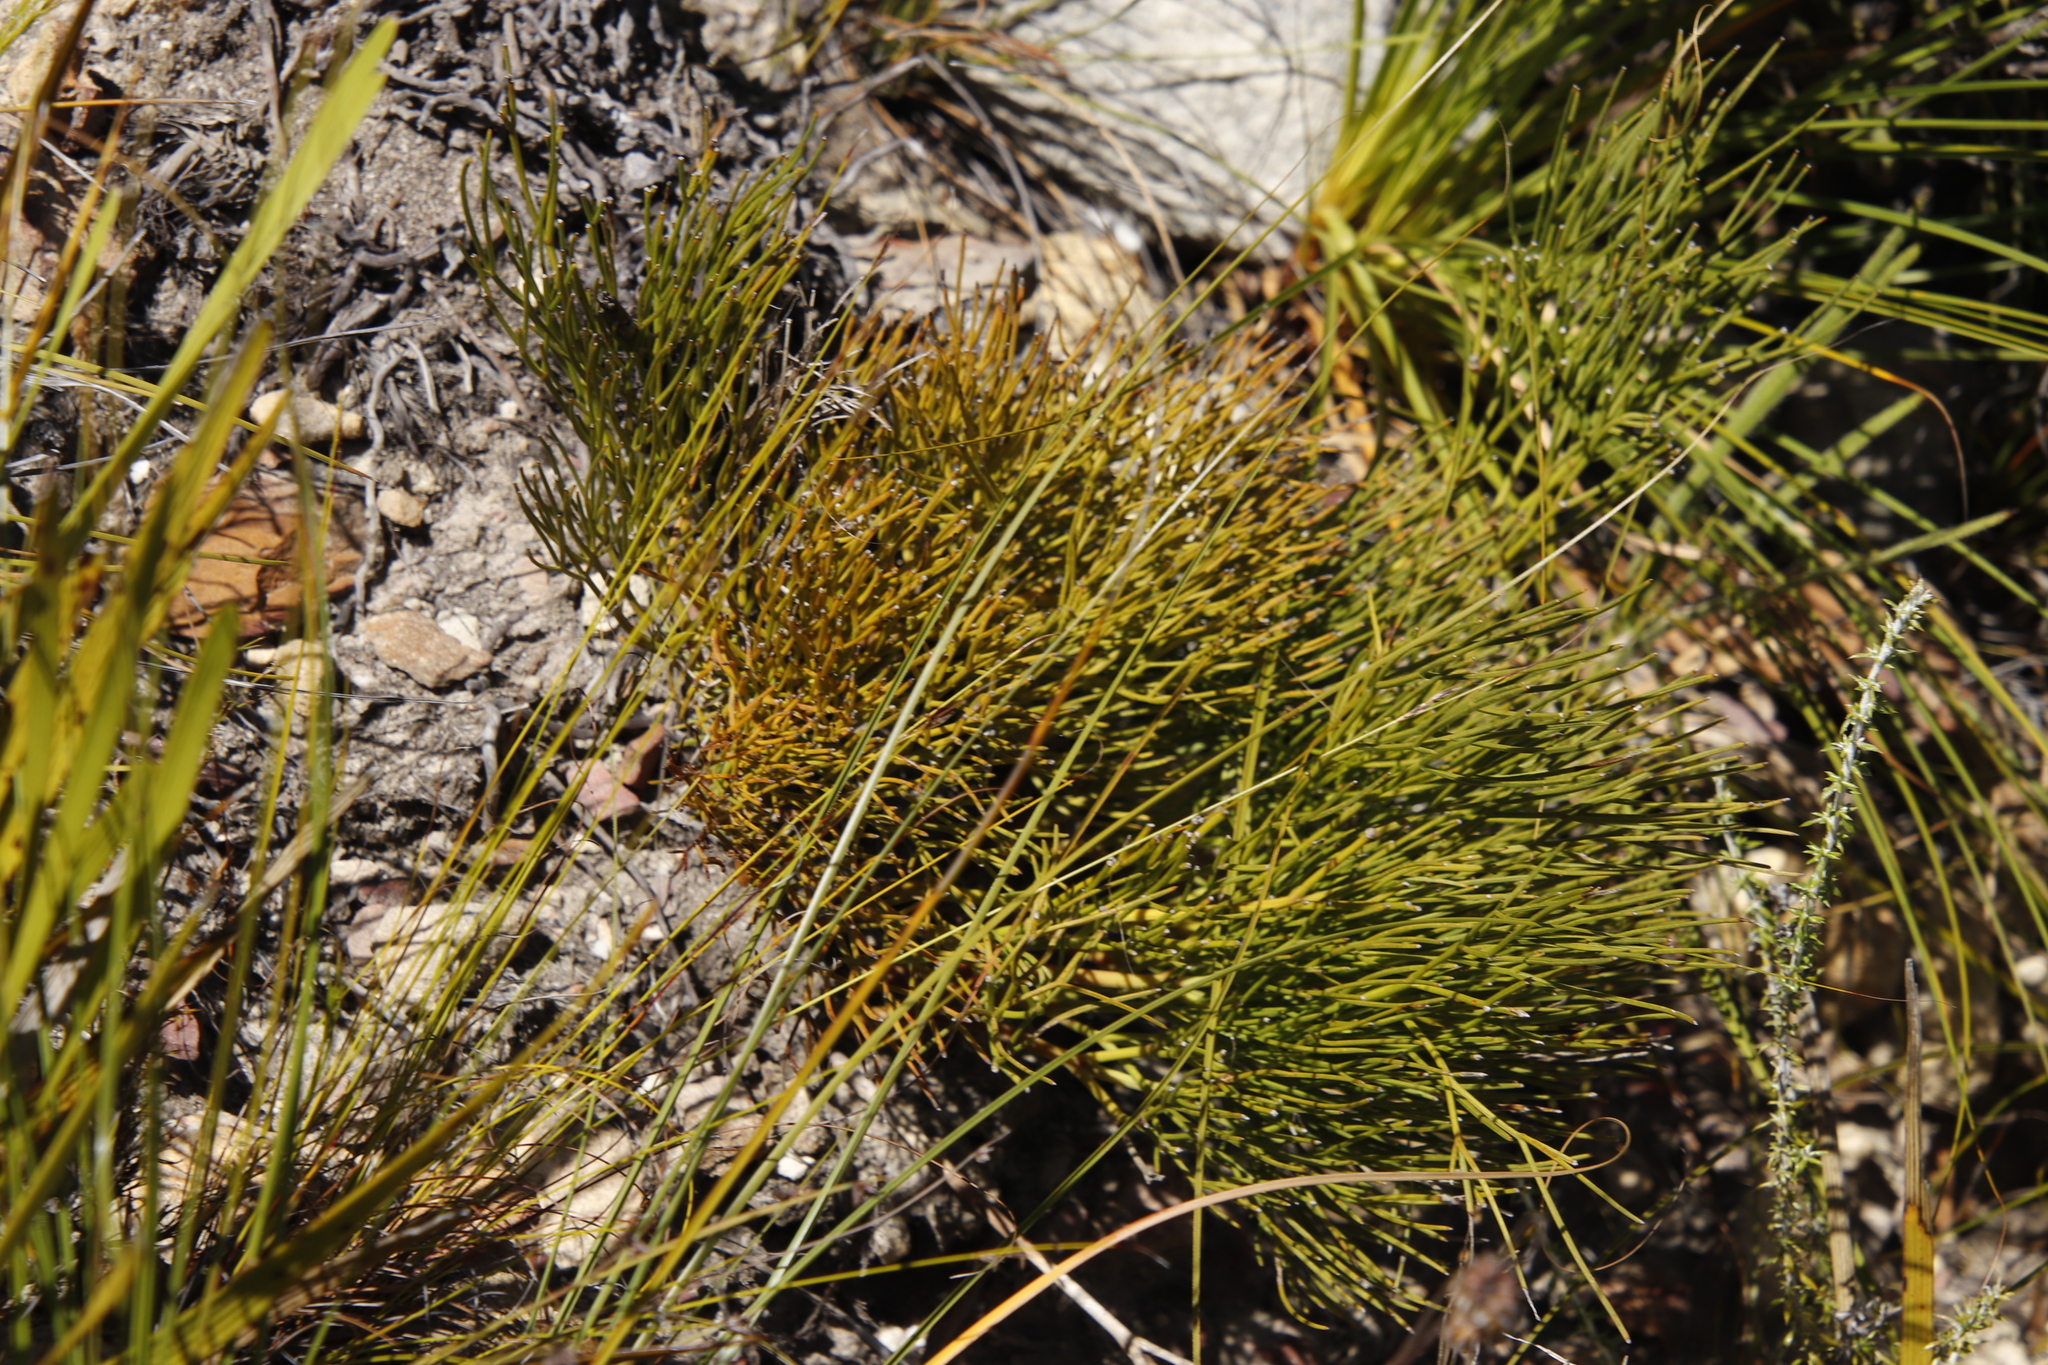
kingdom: Plantae
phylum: Tracheophyta
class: Magnoliopsida
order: Apiales
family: Apiaceae
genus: Nanobubon
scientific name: Nanobubon strictum
